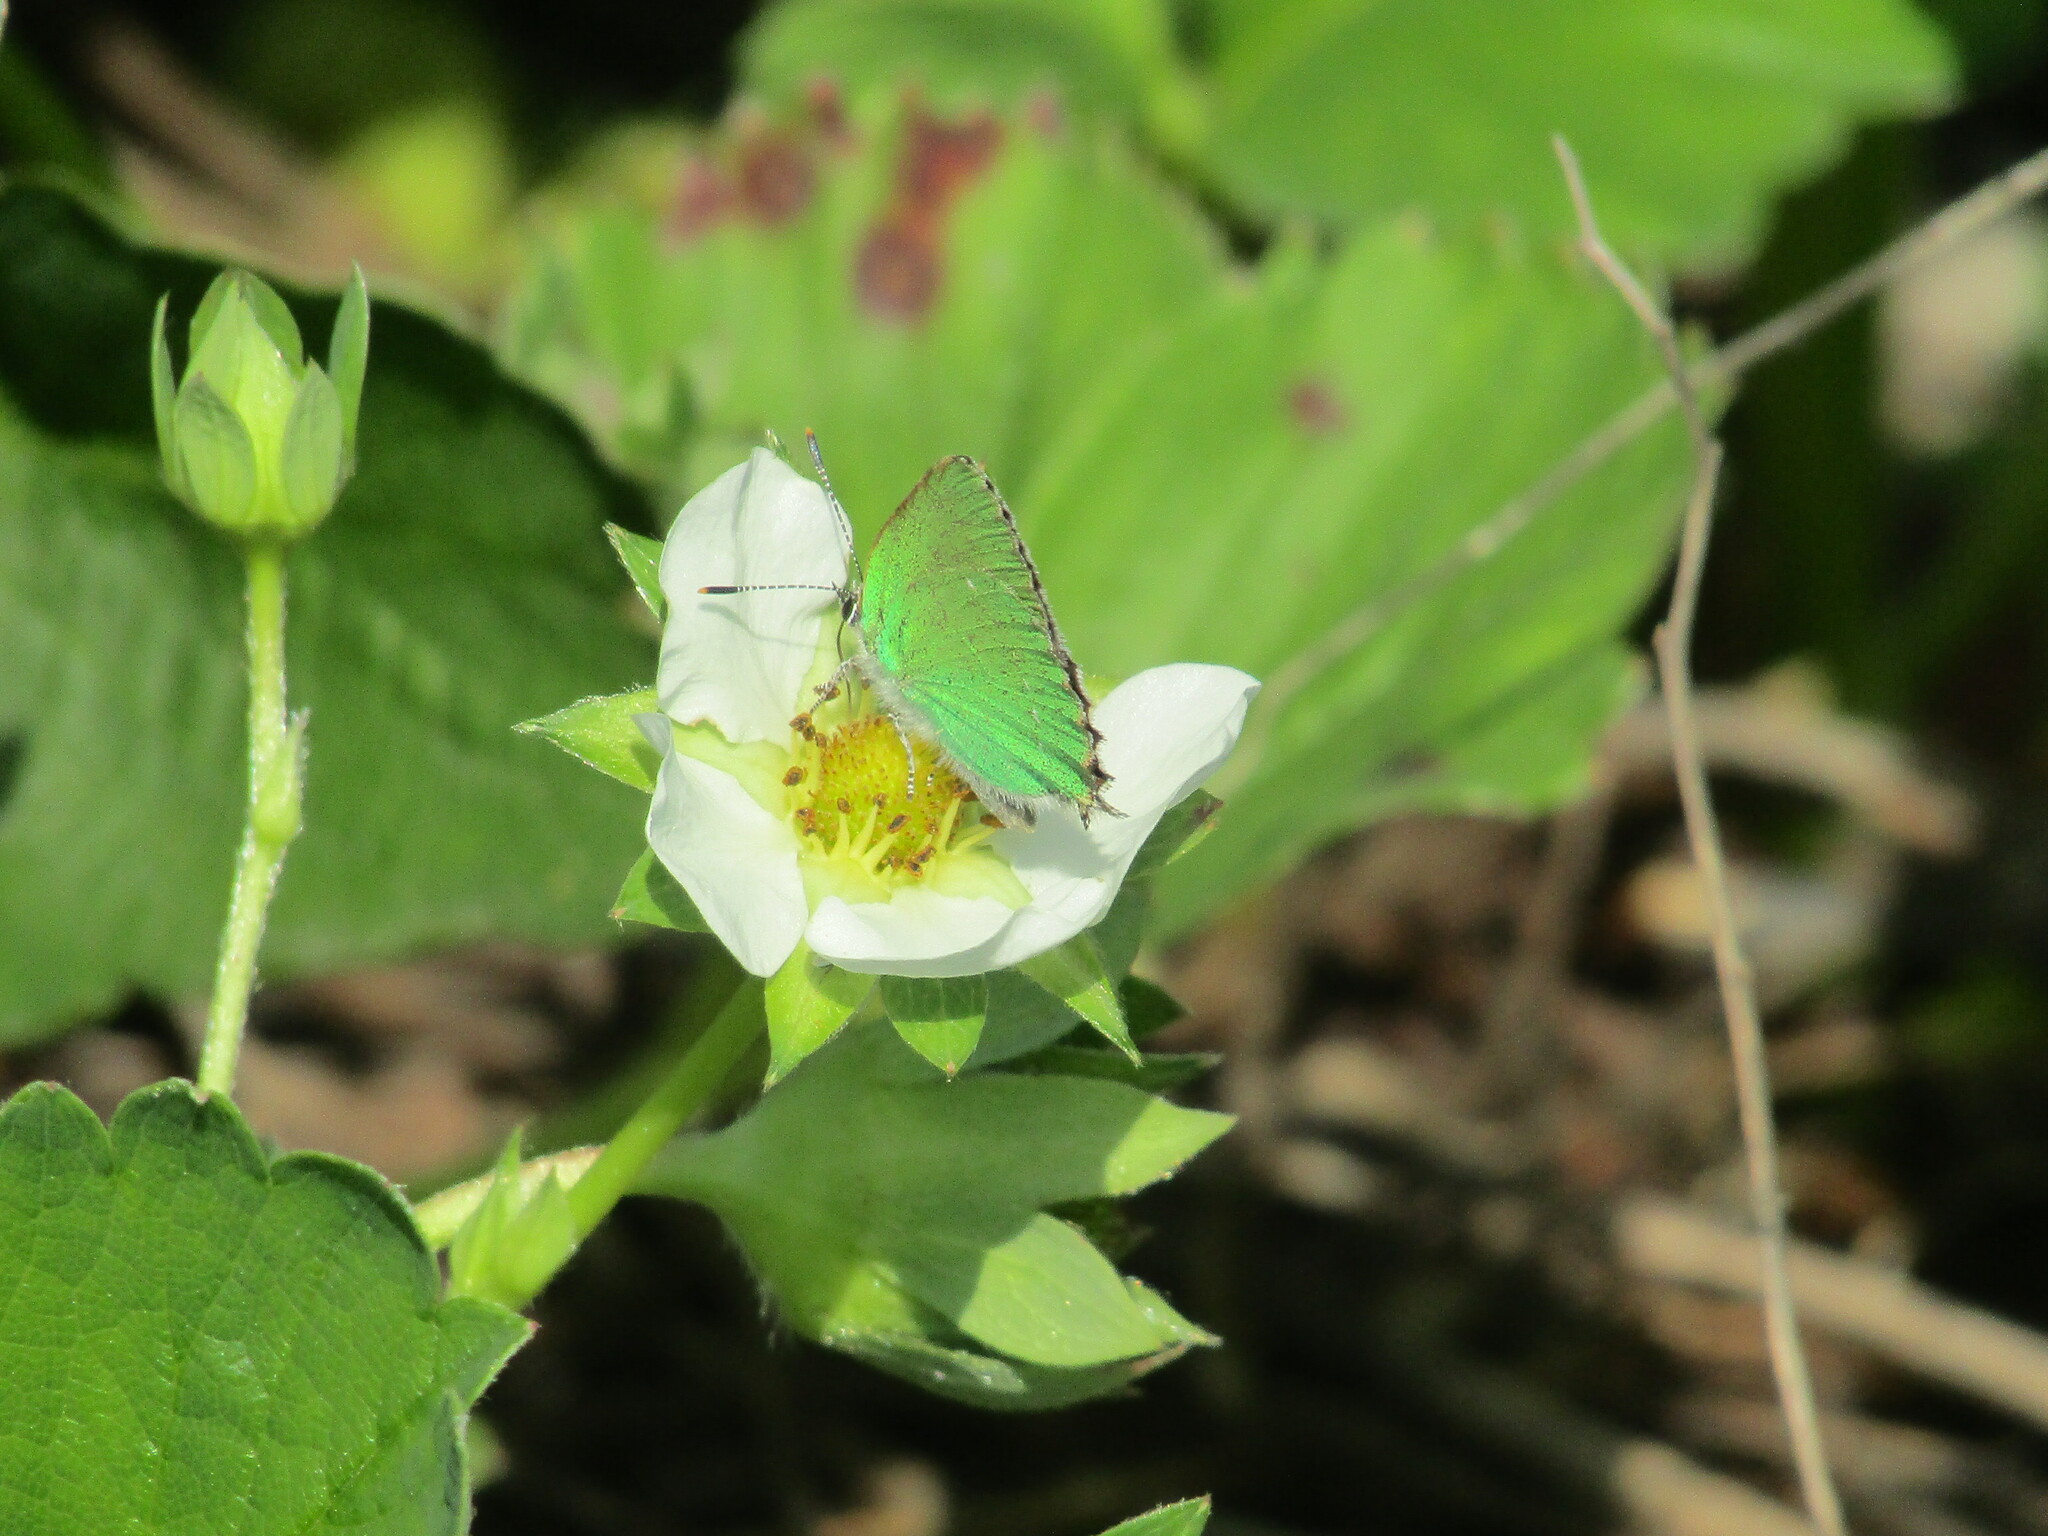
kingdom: Animalia
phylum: Arthropoda
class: Insecta
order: Lepidoptera
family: Lycaenidae
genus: Callophrys
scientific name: Callophrys rubi
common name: Green hairstreak
